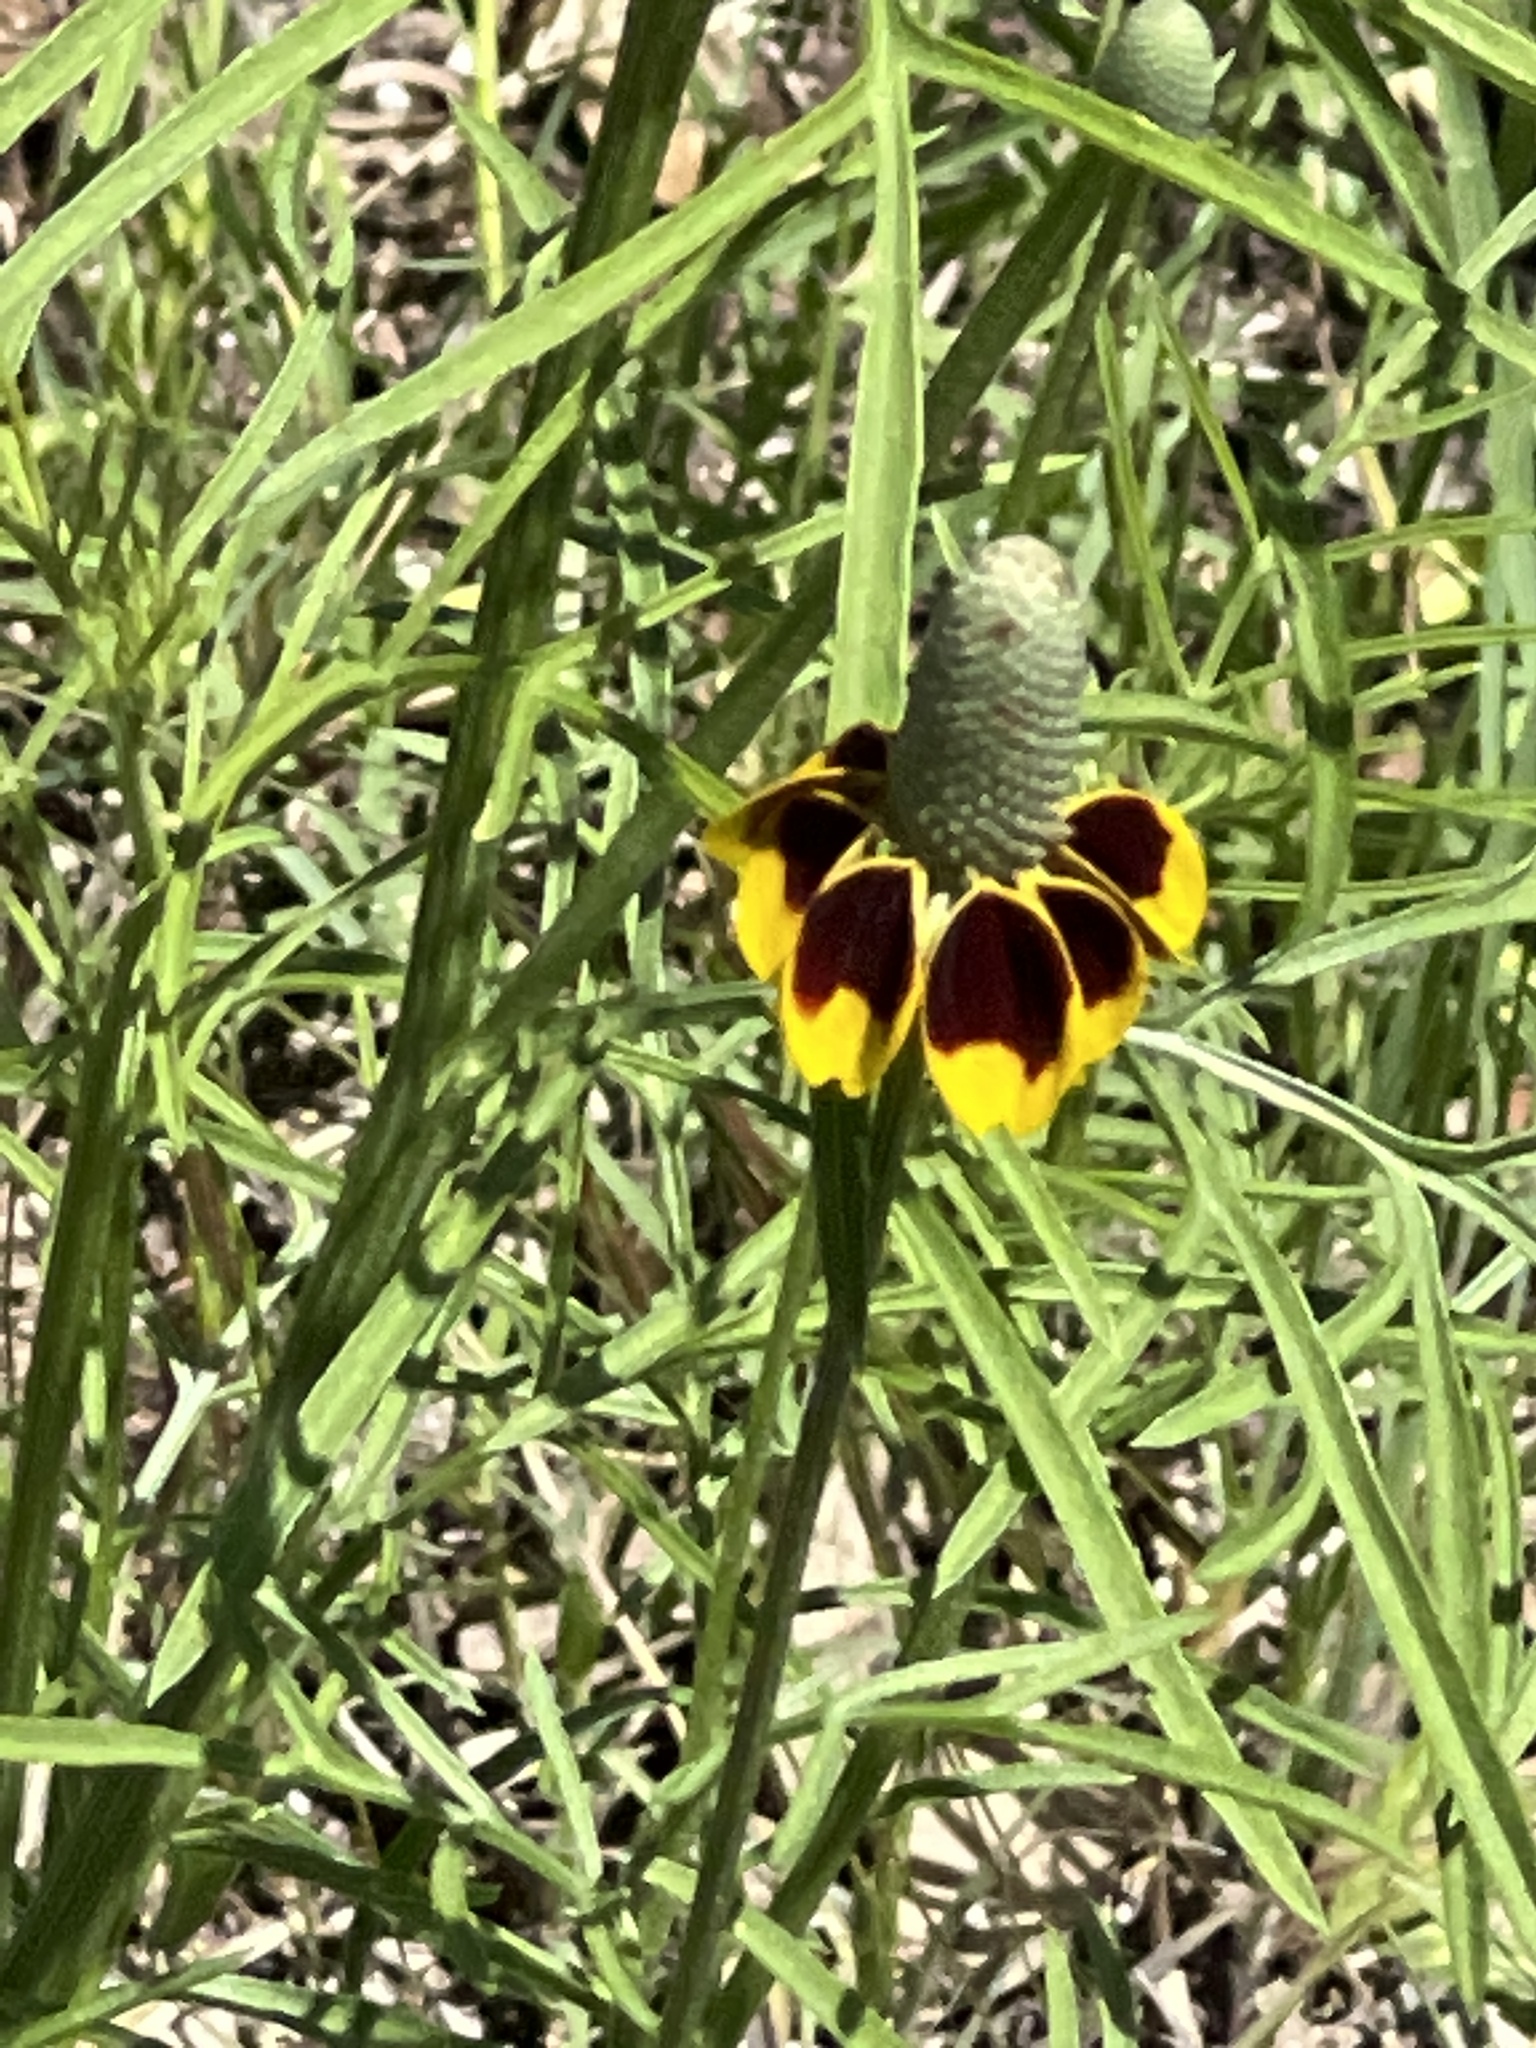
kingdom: Plantae
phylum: Tracheophyta
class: Magnoliopsida
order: Asterales
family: Asteraceae
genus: Ratibida
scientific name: Ratibida columnifera
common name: Prairie coneflower
